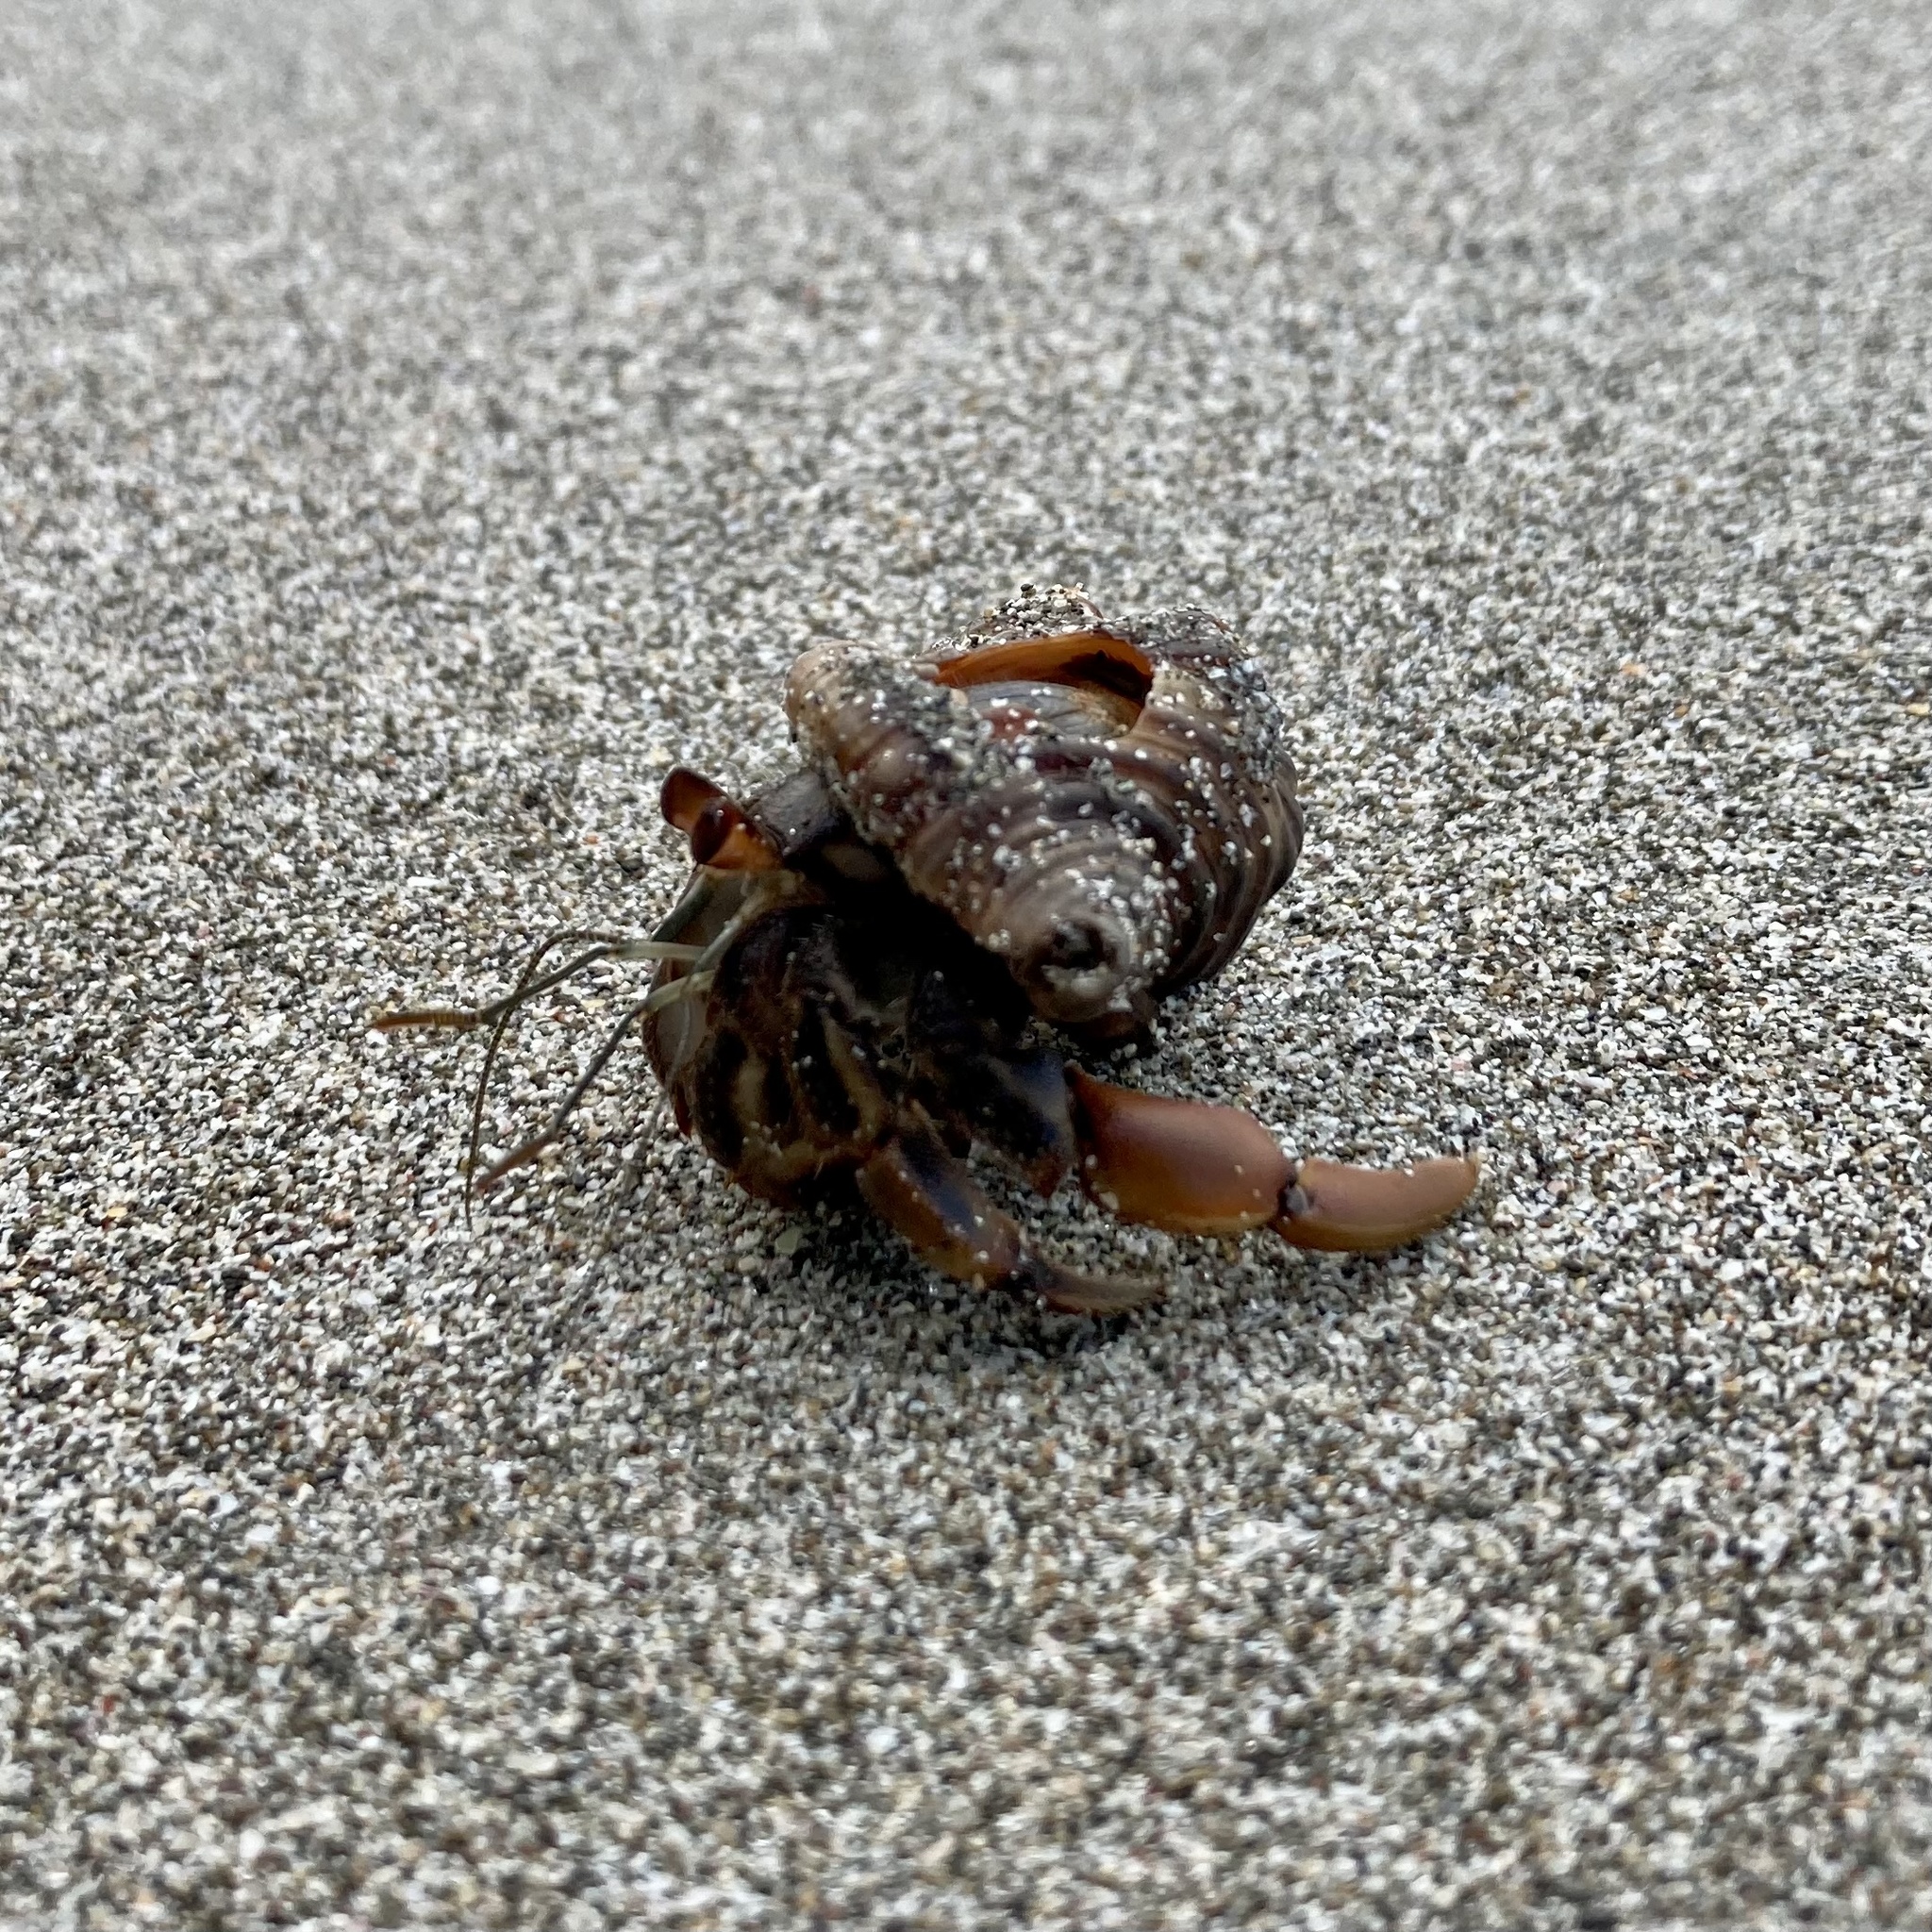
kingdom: Animalia
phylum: Arthropoda
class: Malacostraca
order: Decapoda
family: Coenobitidae
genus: Coenobita
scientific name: Coenobita compressus
